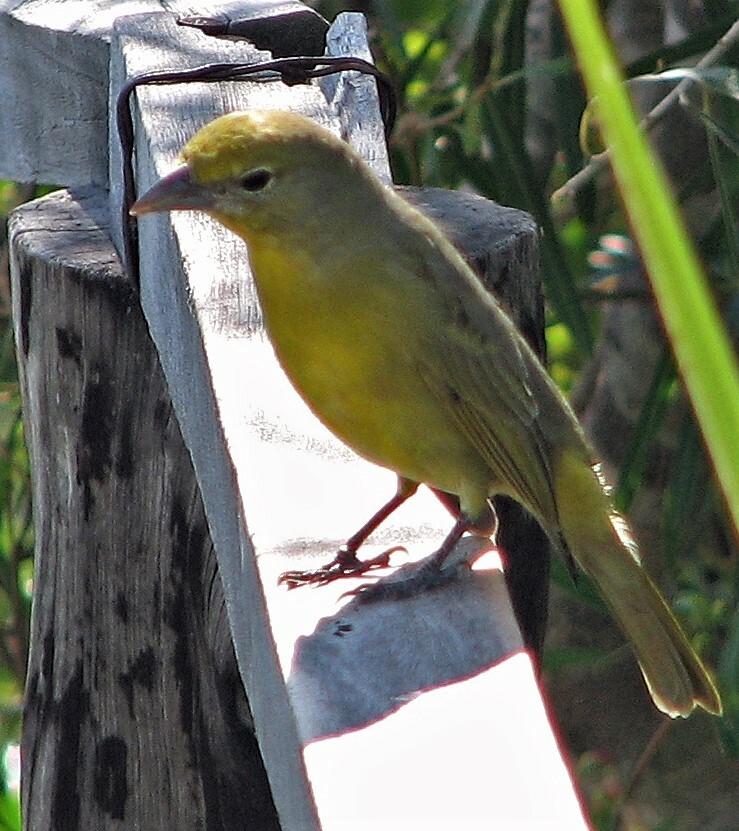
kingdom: Animalia
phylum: Chordata
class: Aves
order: Passeriformes
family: Cardinalidae
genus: Piranga
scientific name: Piranga flava
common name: Red tanager
